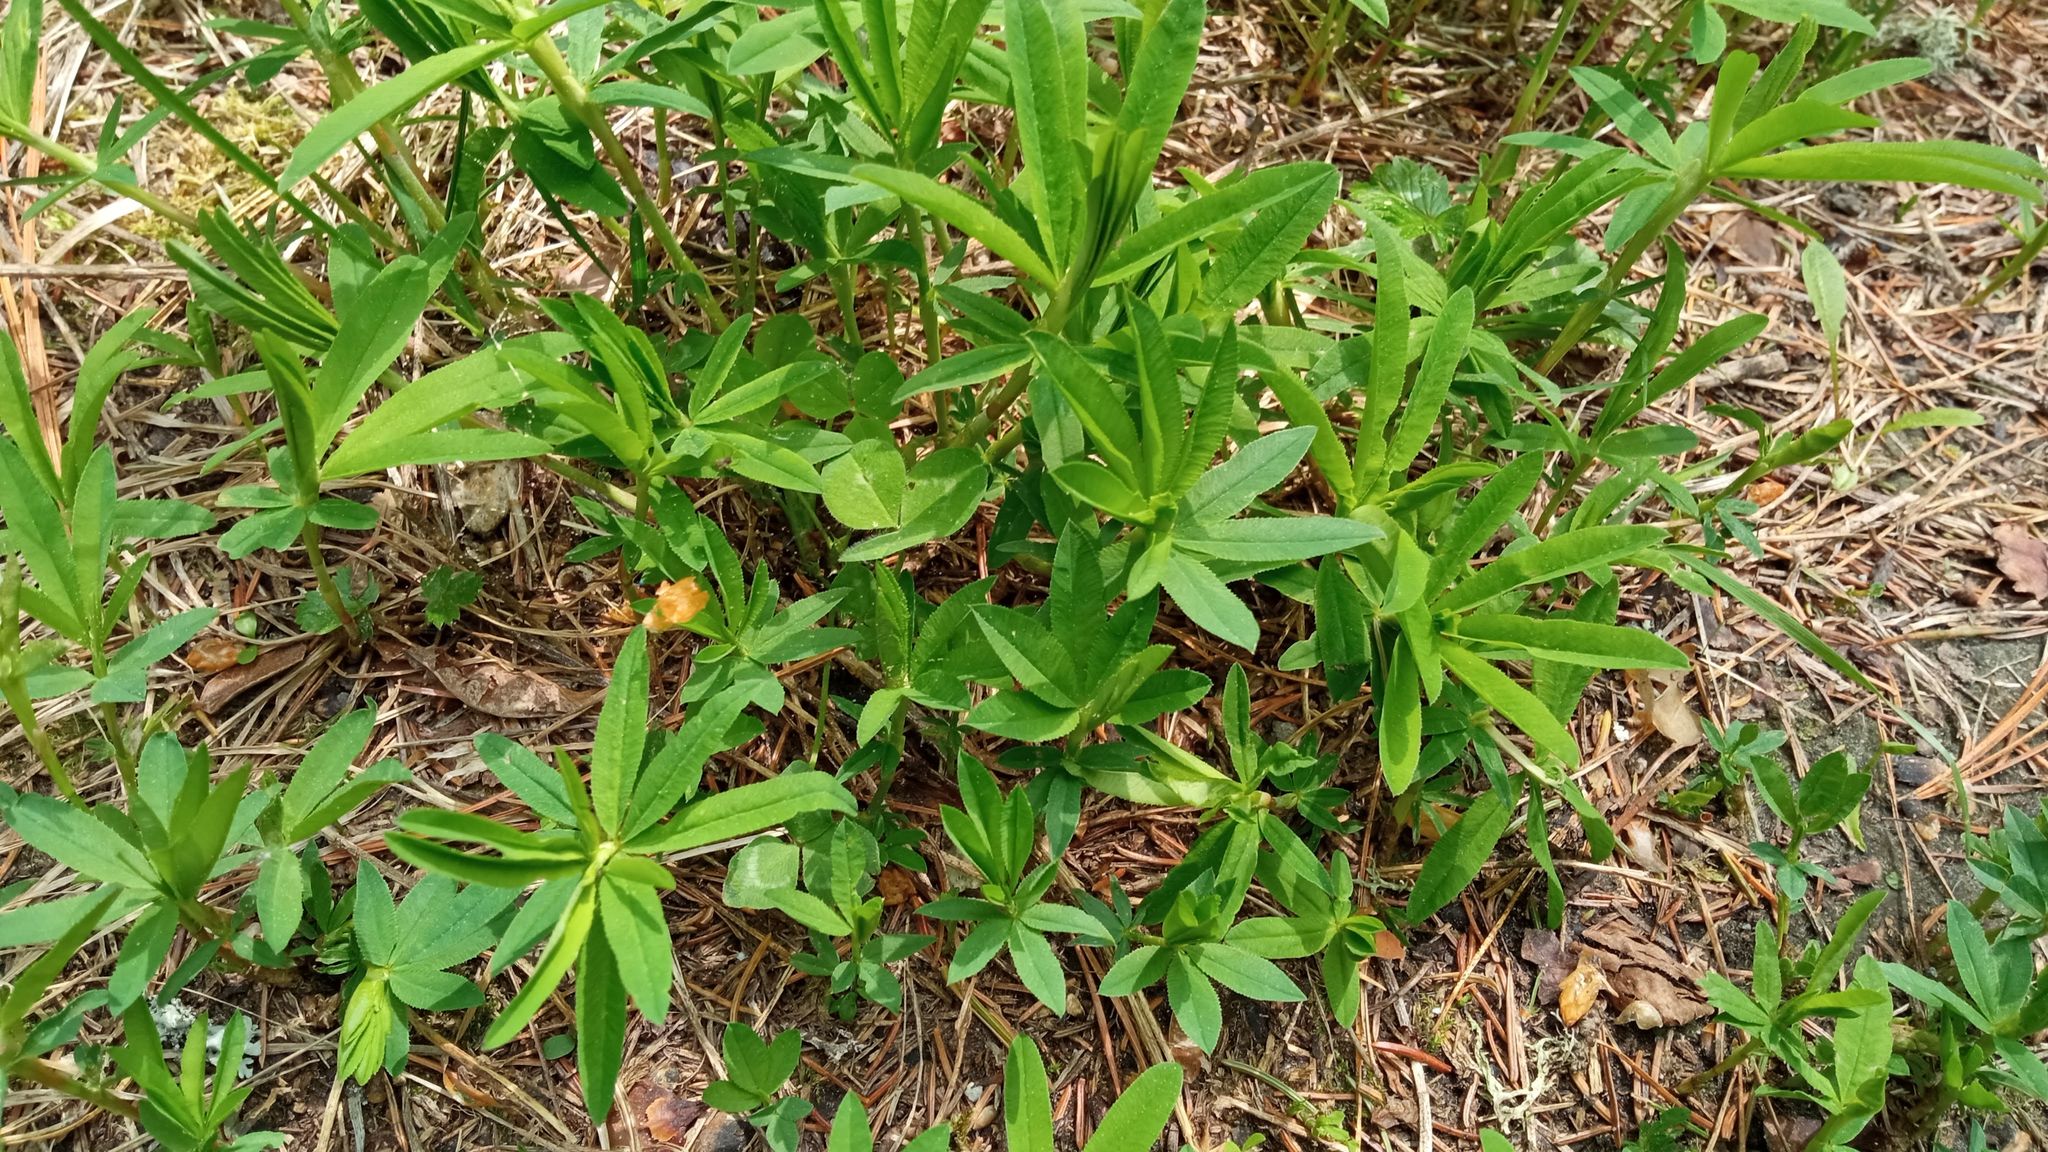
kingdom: Plantae
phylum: Tracheophyta
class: Magnoliopsida
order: Fabales
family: Fabaceae
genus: Trifolium
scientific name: Trifolium lupinaster
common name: Lupine clover
